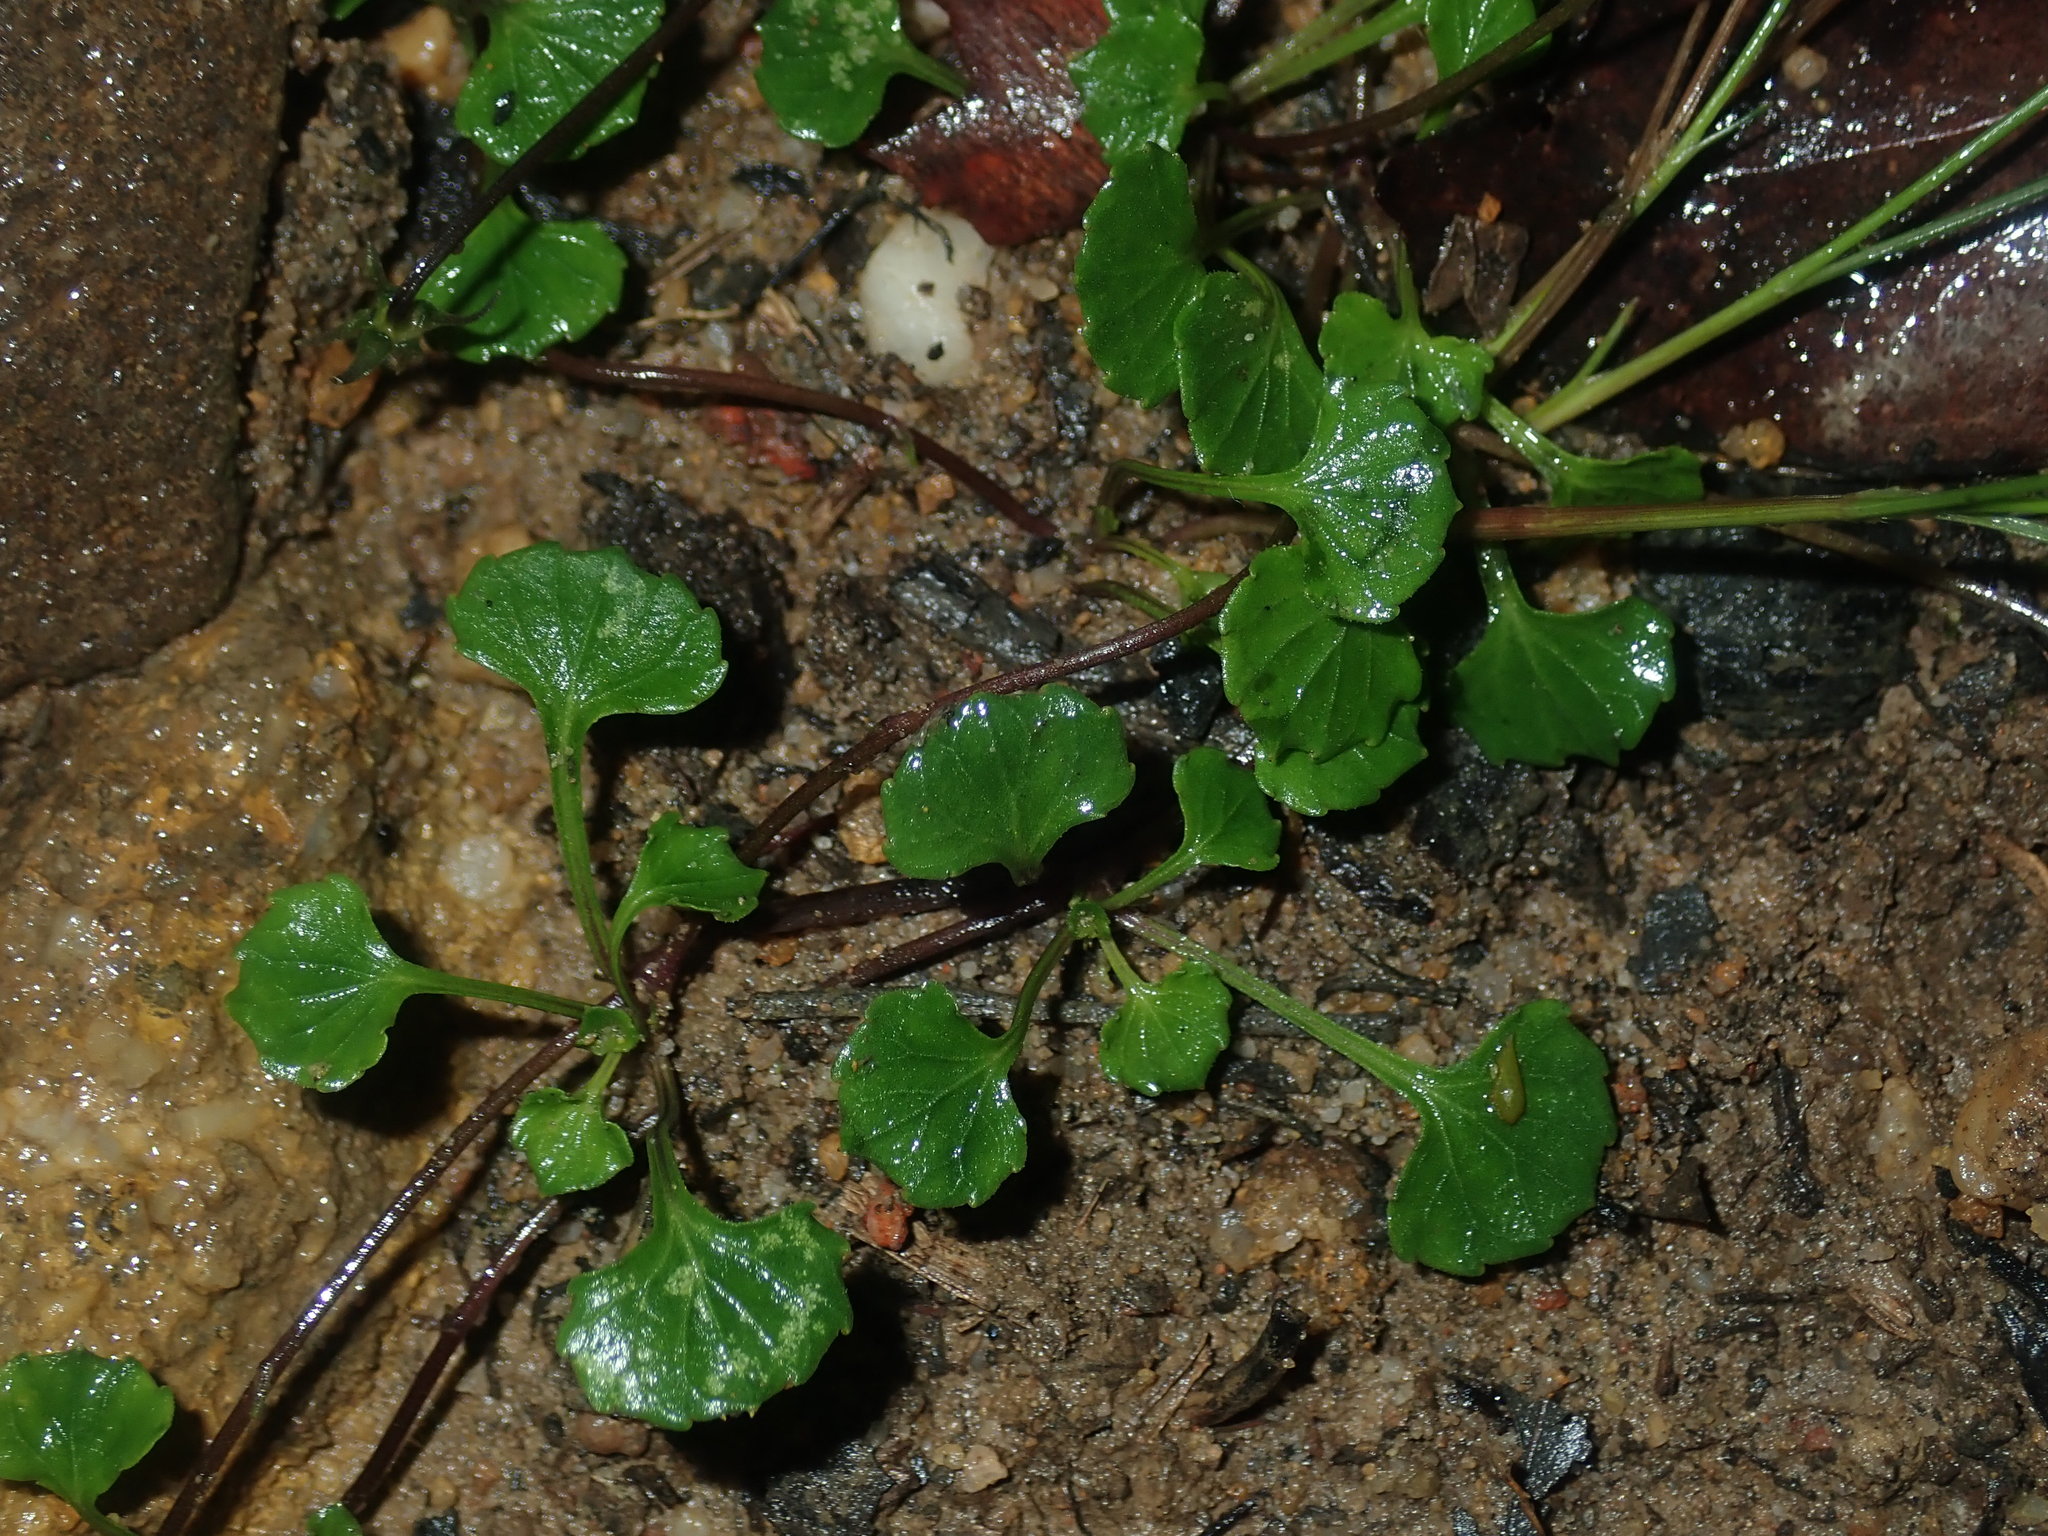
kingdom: Plantae
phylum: Tracheophyta
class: Magnoliopsida
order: Malpighiales
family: Violaceae
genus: Viola
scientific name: Viola silicestris
